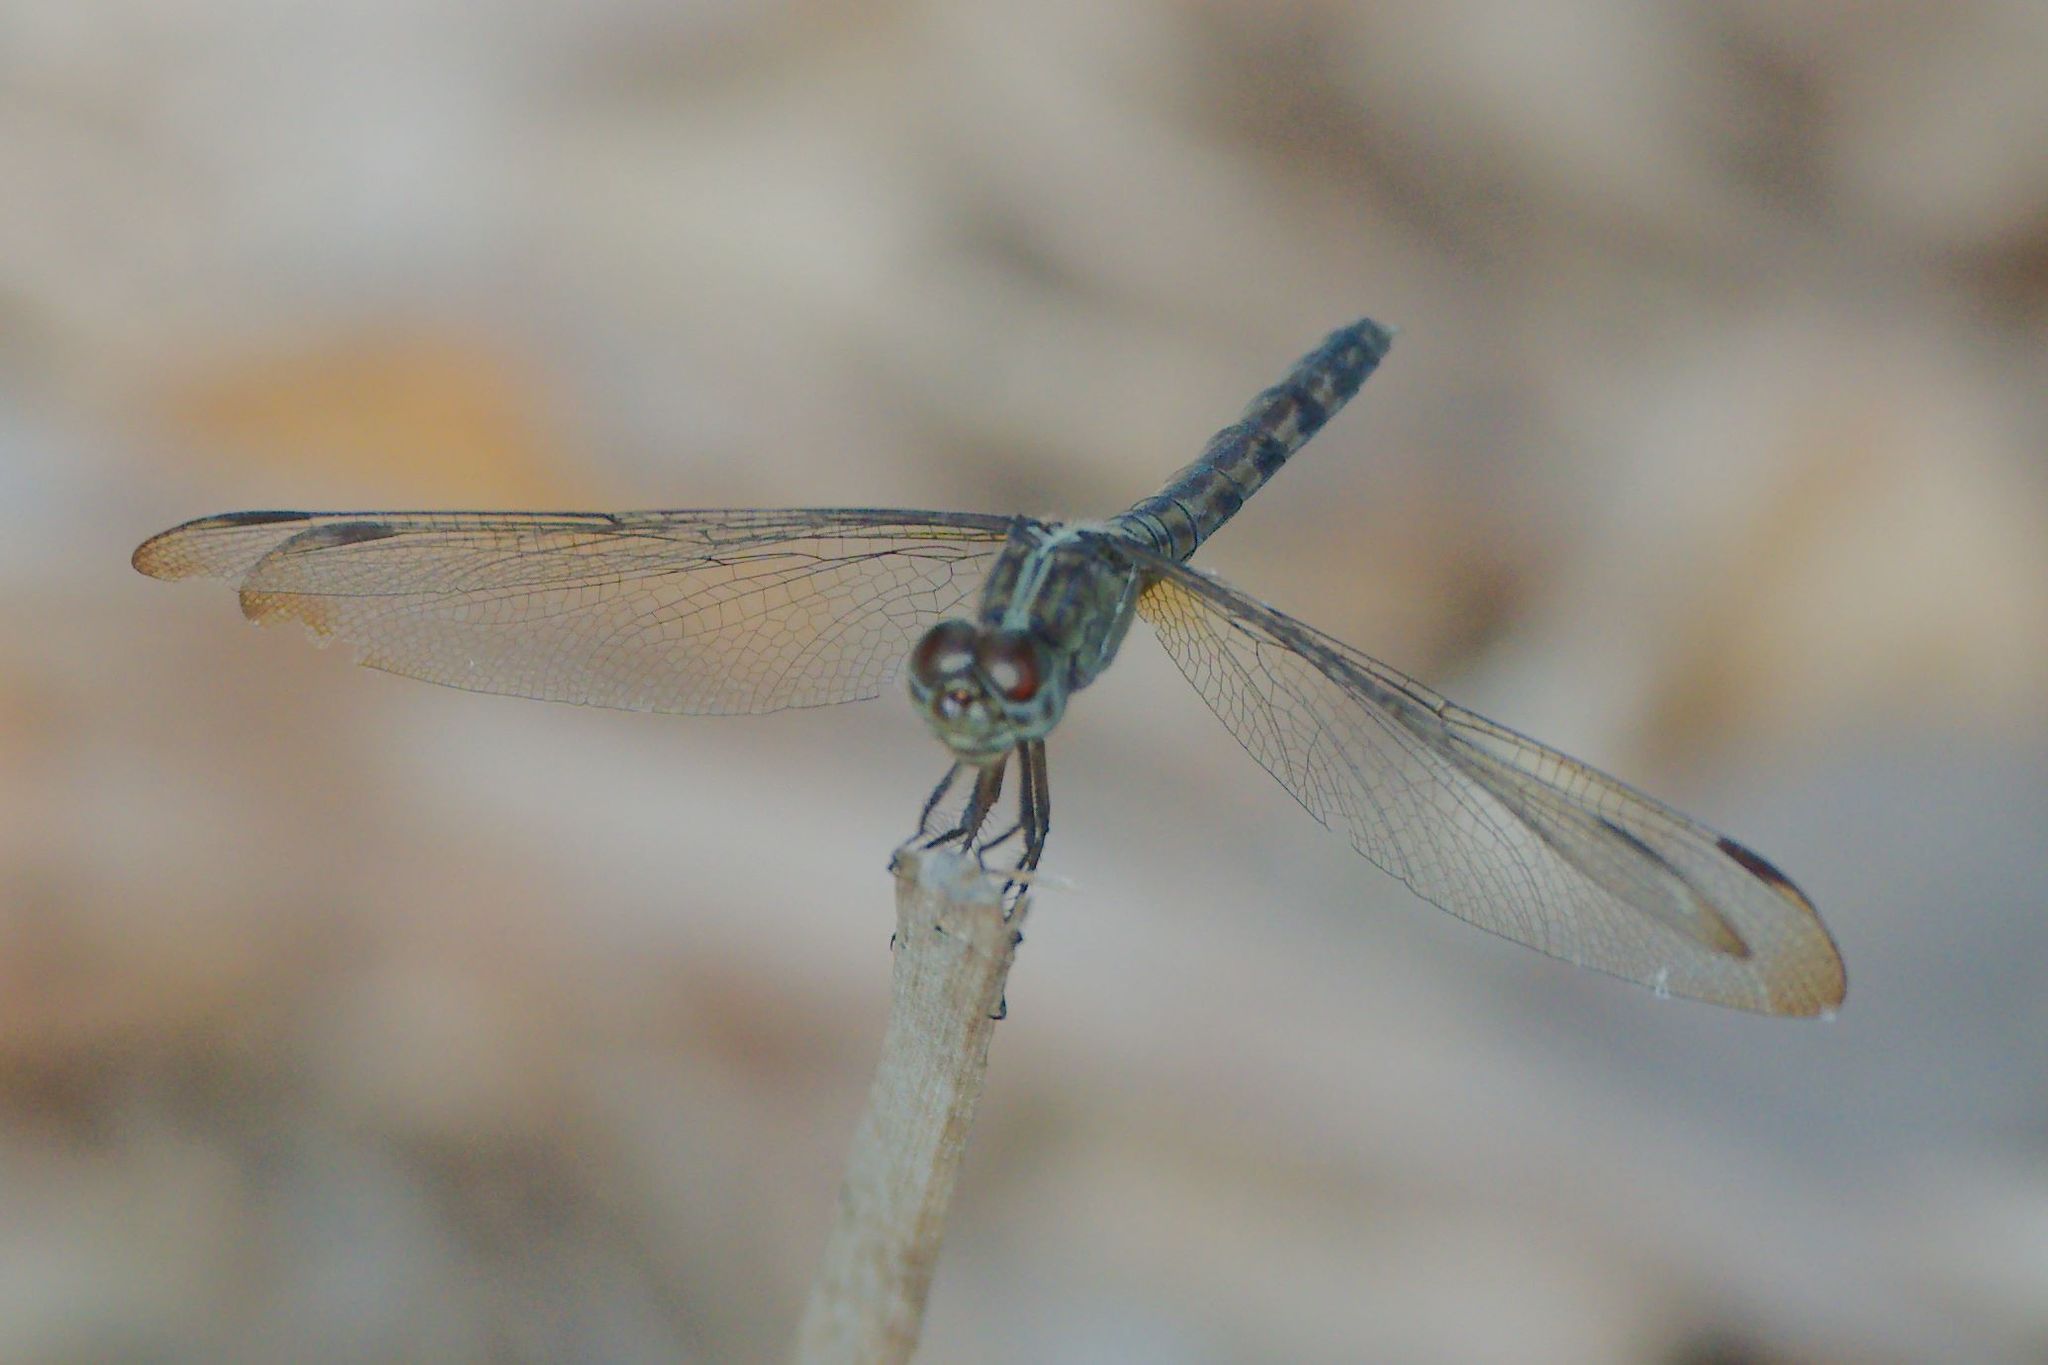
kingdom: Animalia
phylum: Arthropoda
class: Insecta
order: Odonata
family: Libellulidae
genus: Erythrodiplax
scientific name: Erythrodiplax umbrata
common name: Band-winged dragonlet
